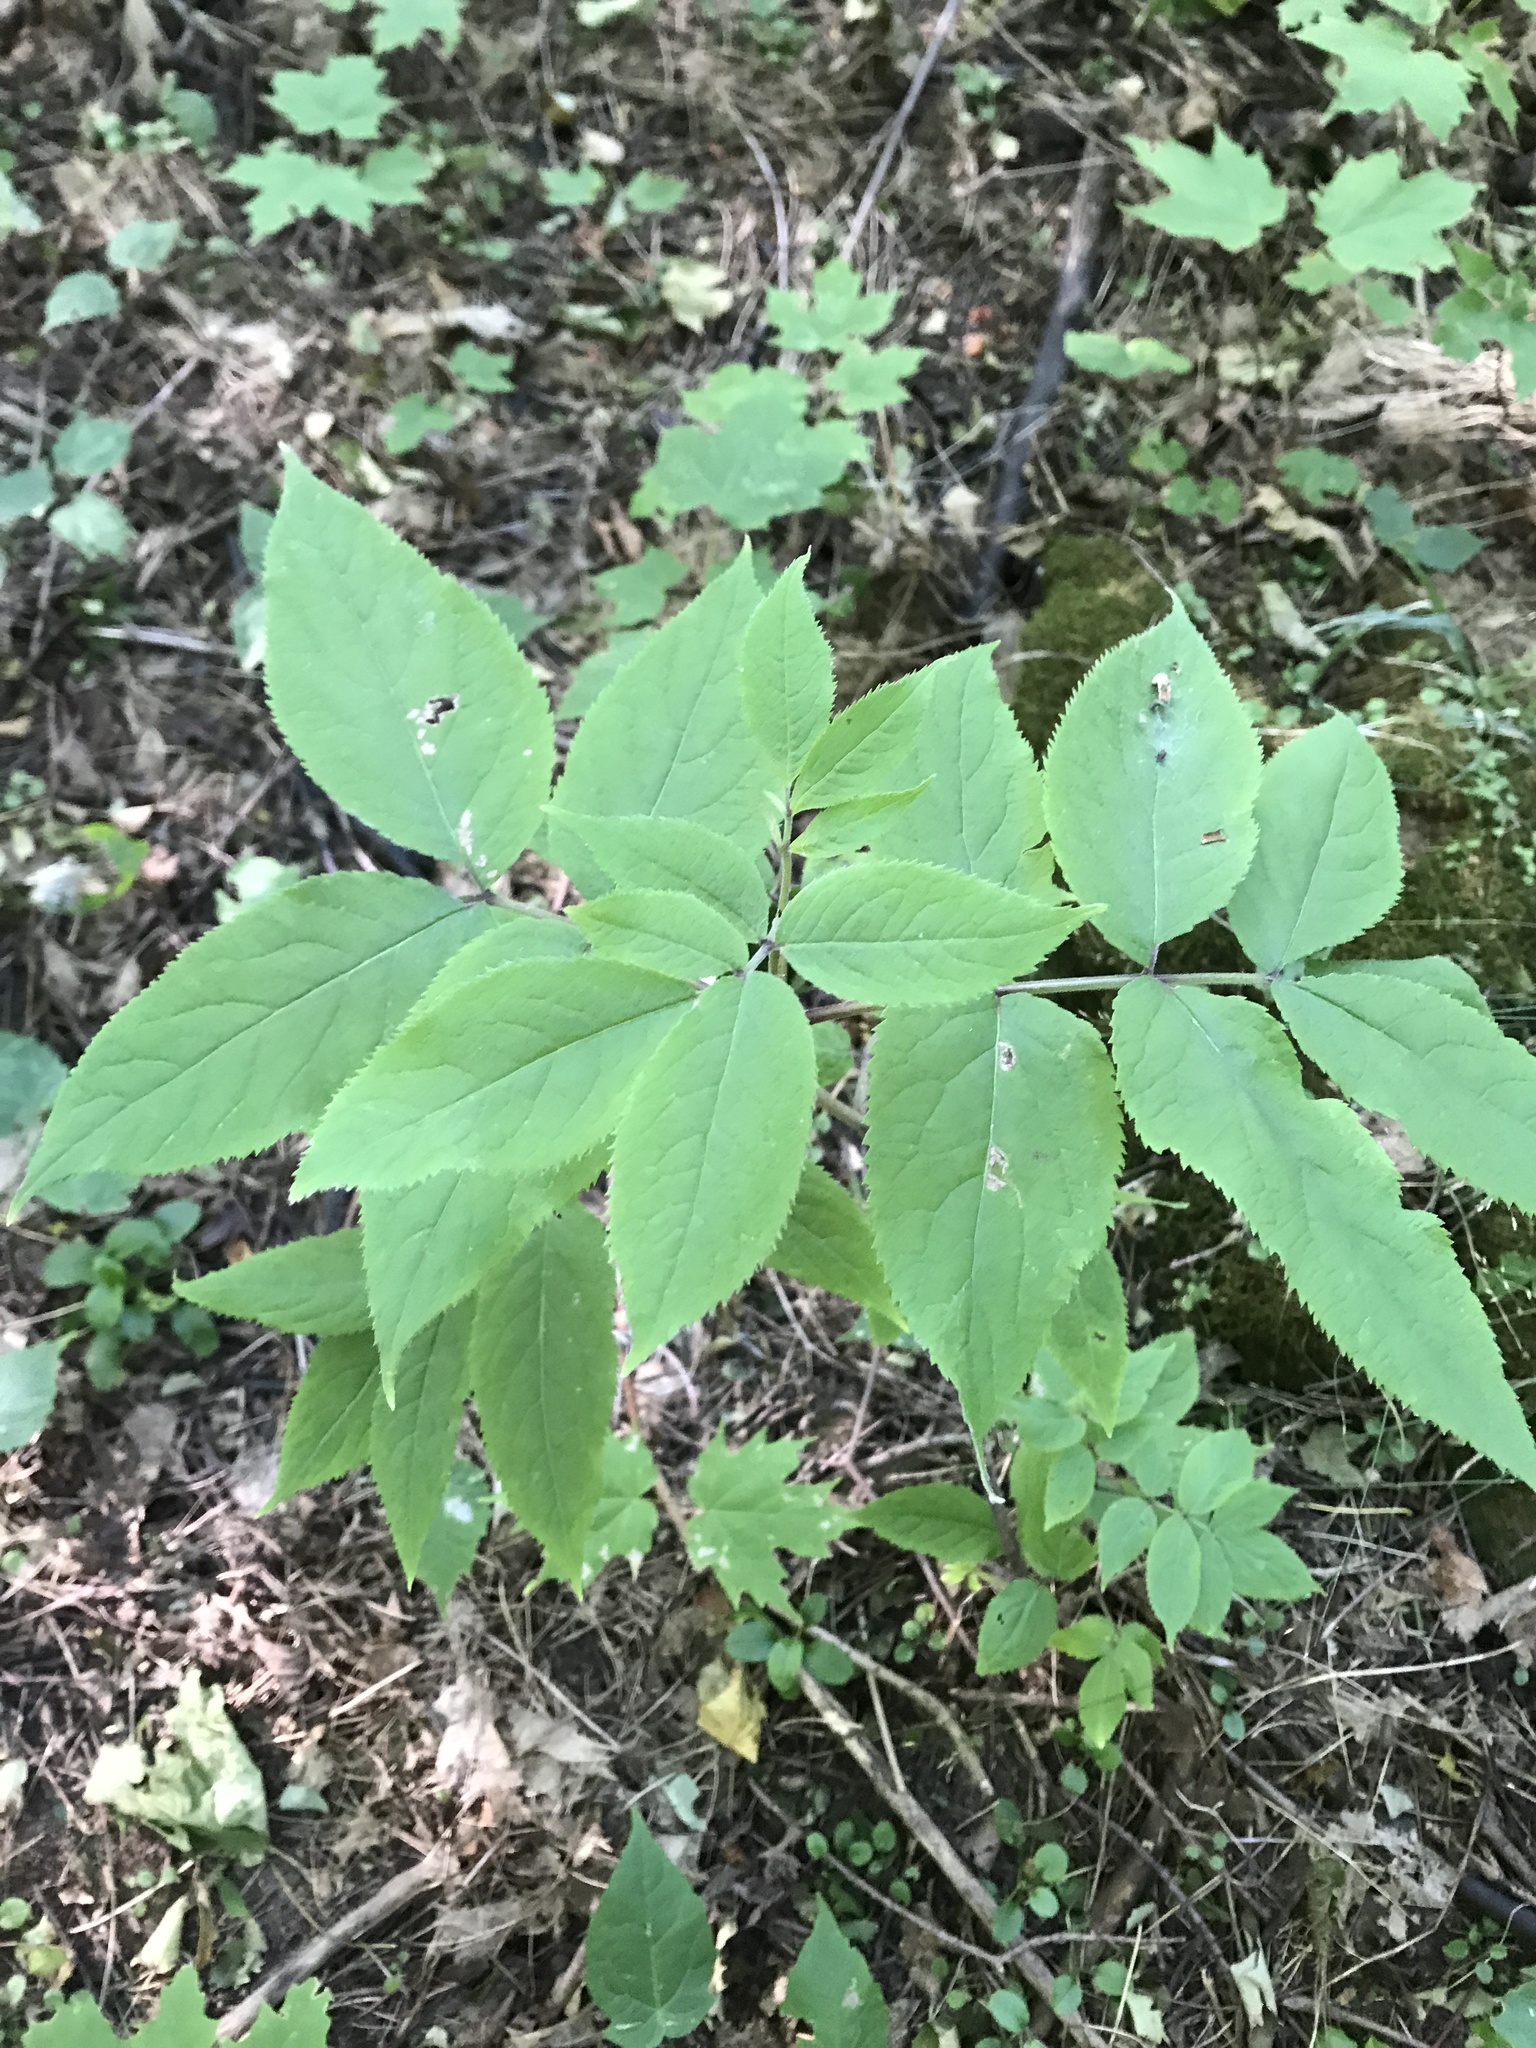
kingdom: Plantae
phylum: Tracheophyta
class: Magnoliopsida
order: Dipsacales
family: Viburnaceae
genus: Sambucus
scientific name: Sambucus racemosa
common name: Red-berried elder
